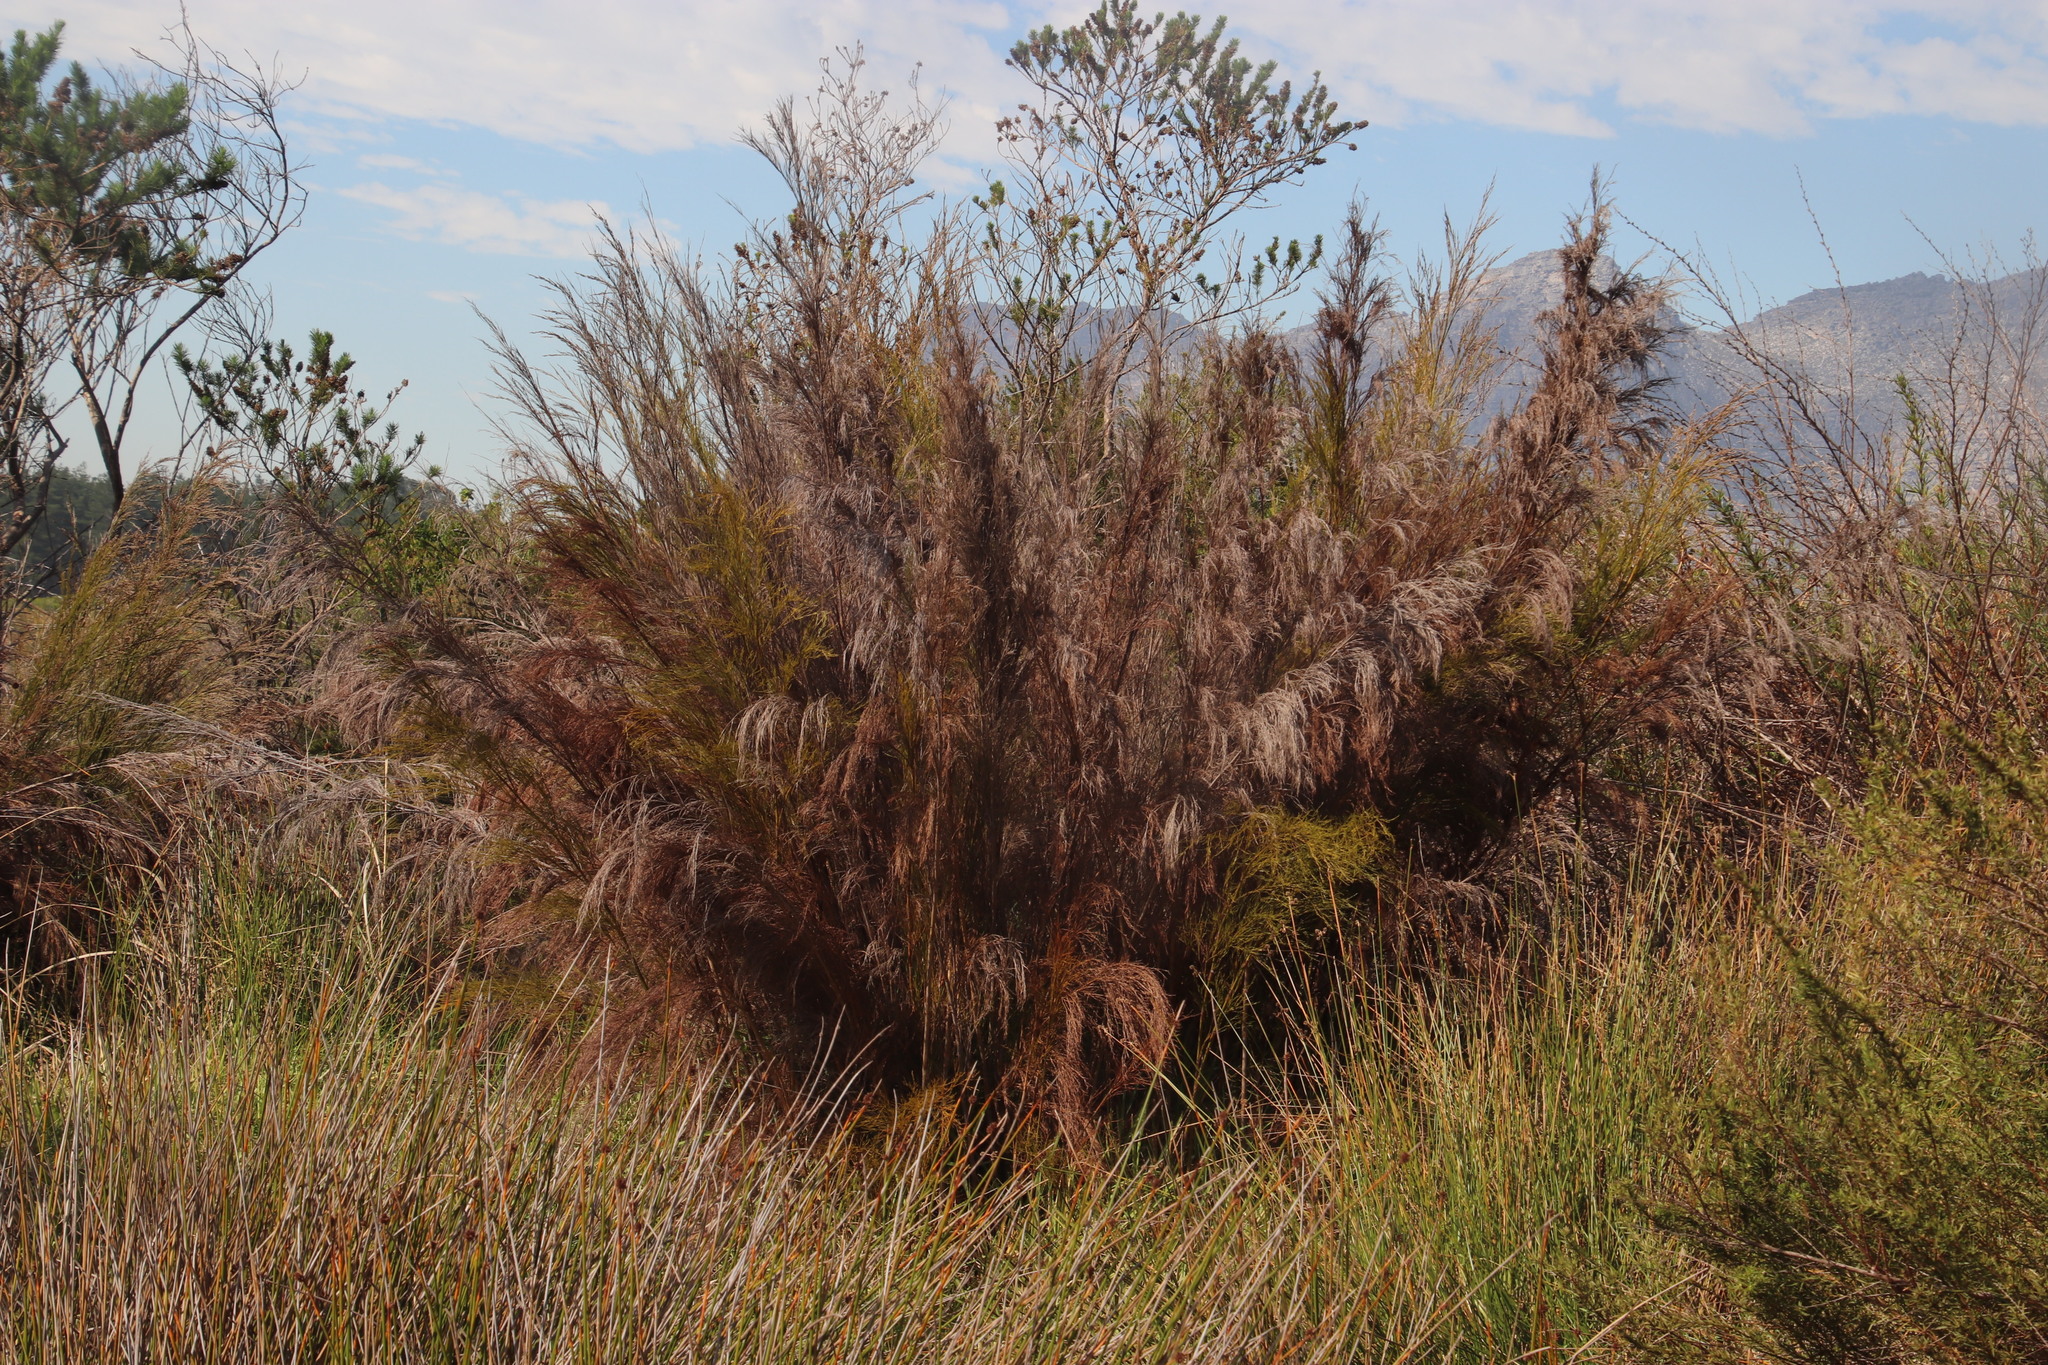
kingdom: Plantae
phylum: Tracheophyta
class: Liliopsida
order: Poales
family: Restionaceae
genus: Restio
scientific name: Restio paniculatus
